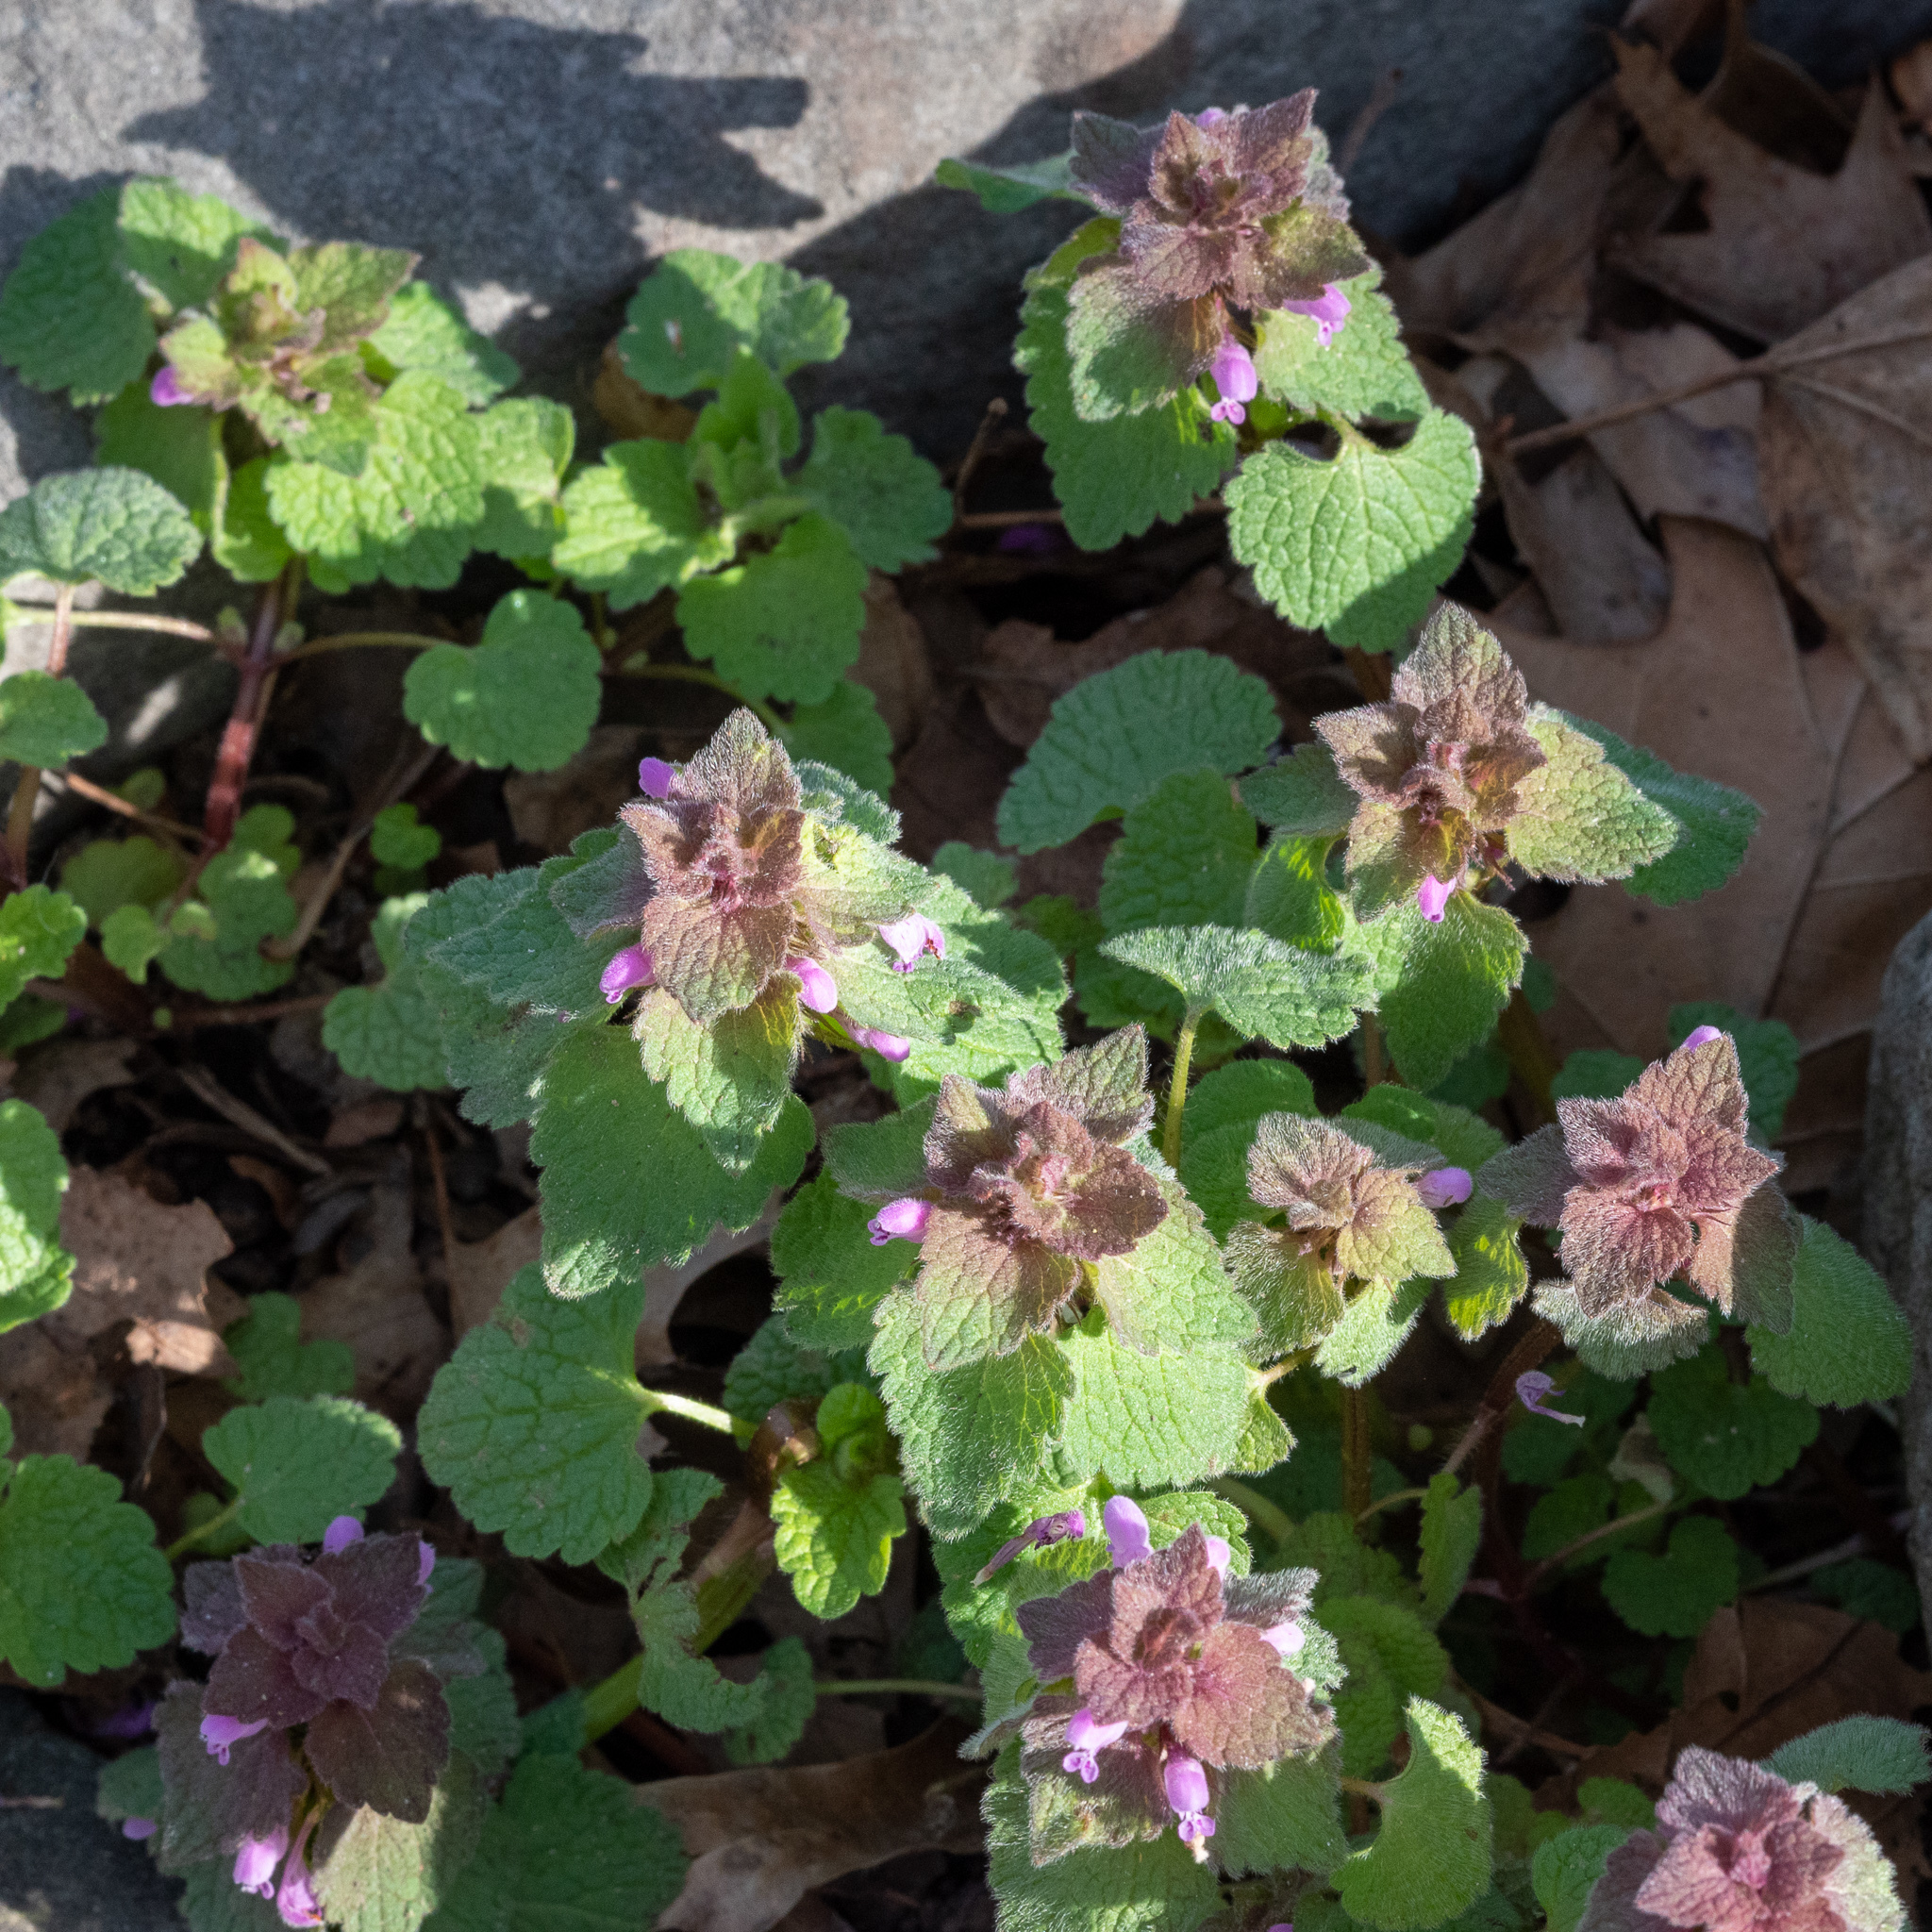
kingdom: Plantae
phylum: Tracheophyta
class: Magnoliopsida
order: Lamiales
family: Lamiaceae
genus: Lamium
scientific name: Lamium purpureum
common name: Red dead-nettle
